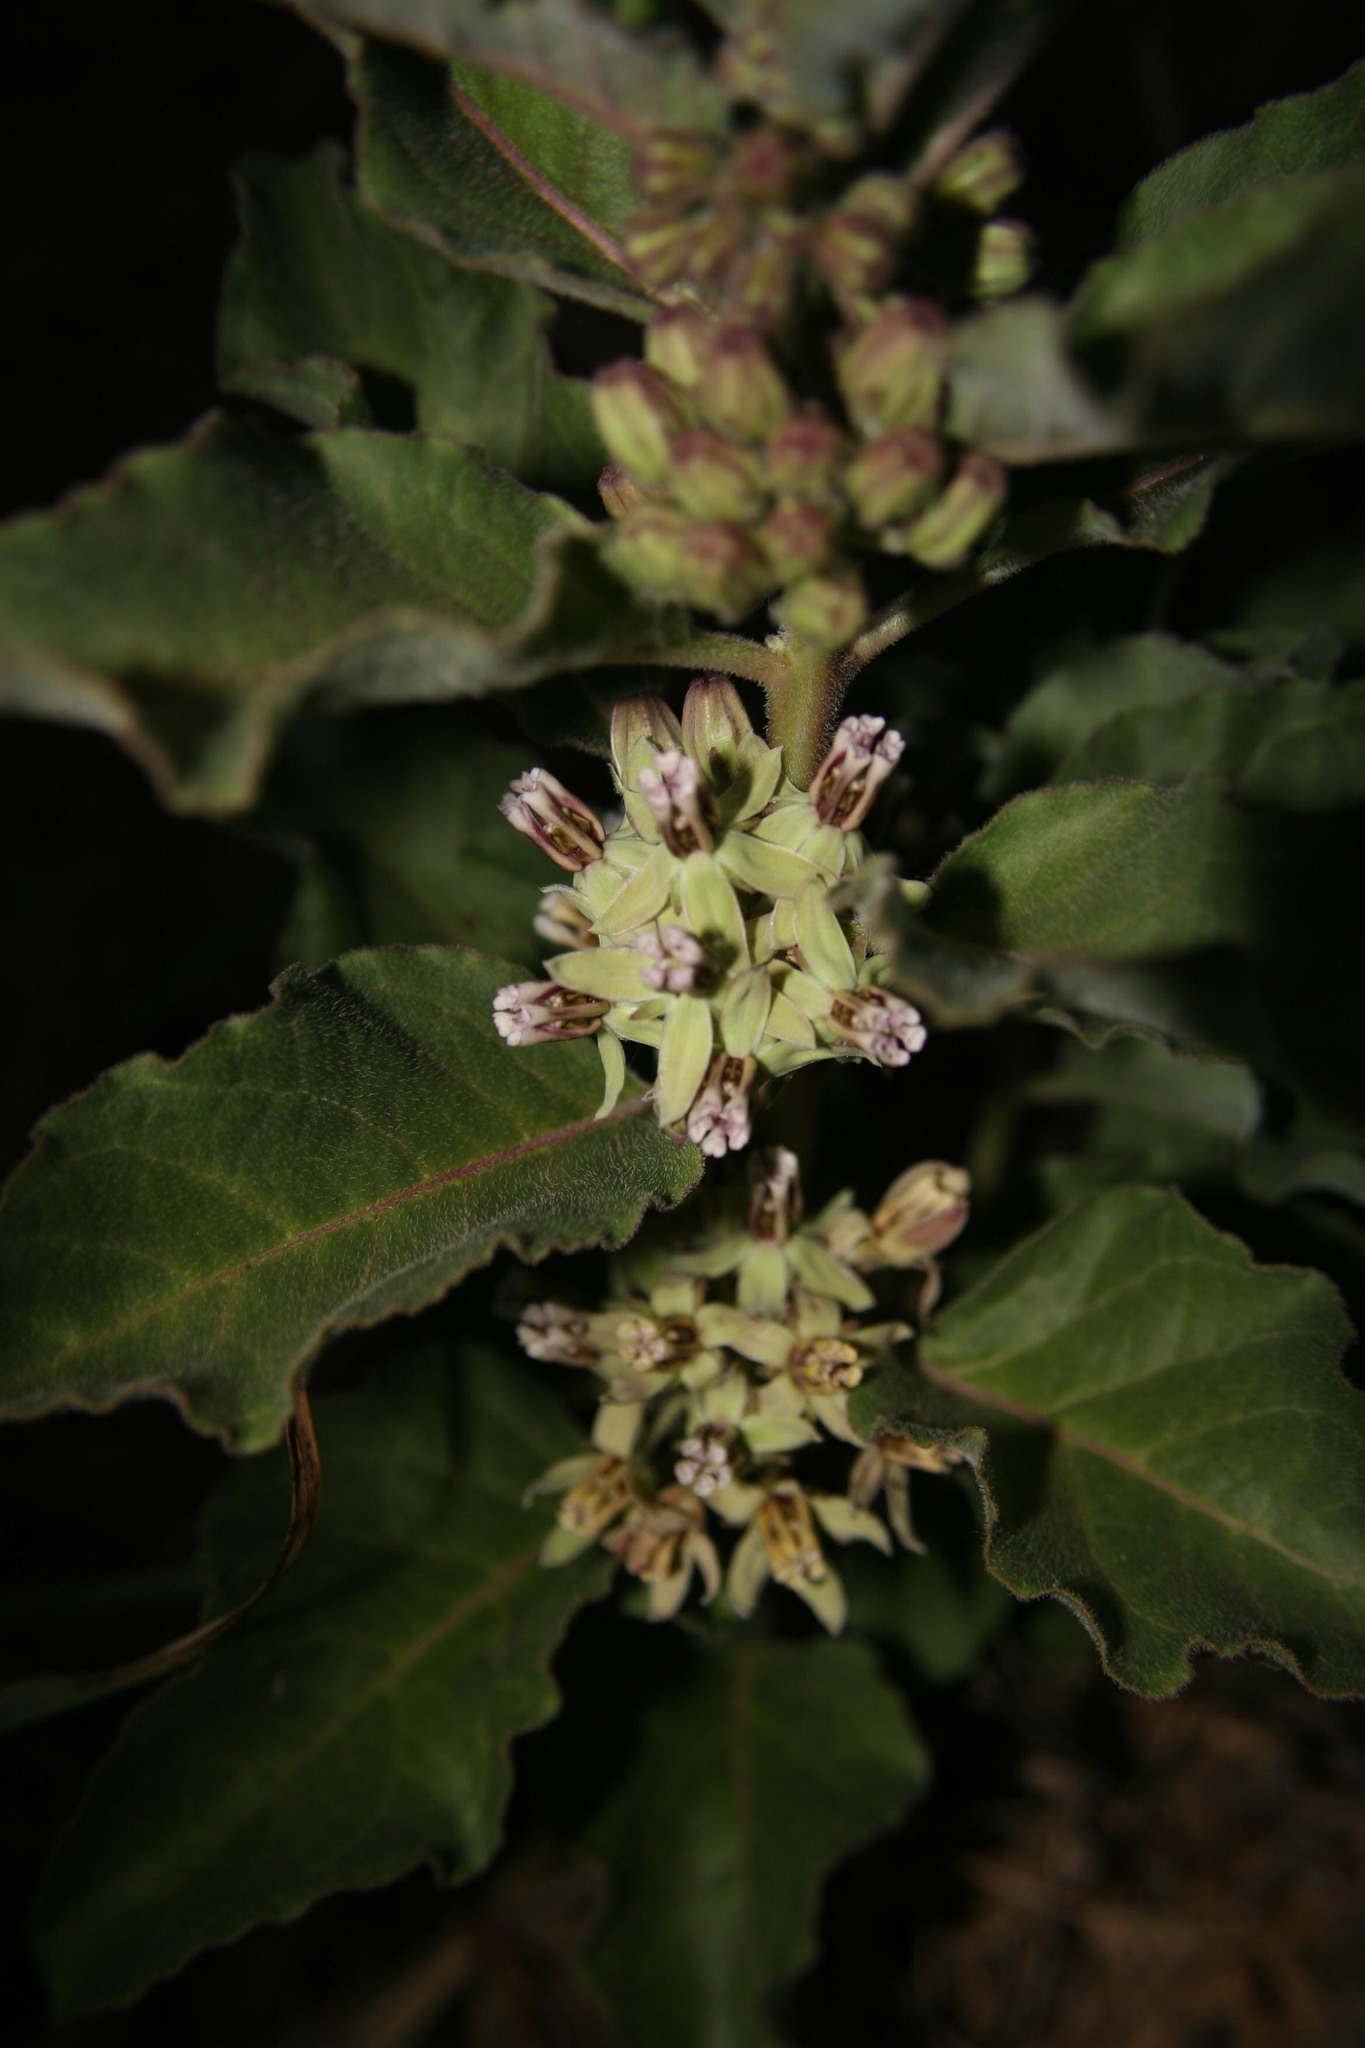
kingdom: Plantae
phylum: Tracheophyta
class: Magnoliopsida
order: Gentianales
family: Apocynaceae
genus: Asclepias
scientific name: Asclepias oenotheroides
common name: Zizotes milkweed
